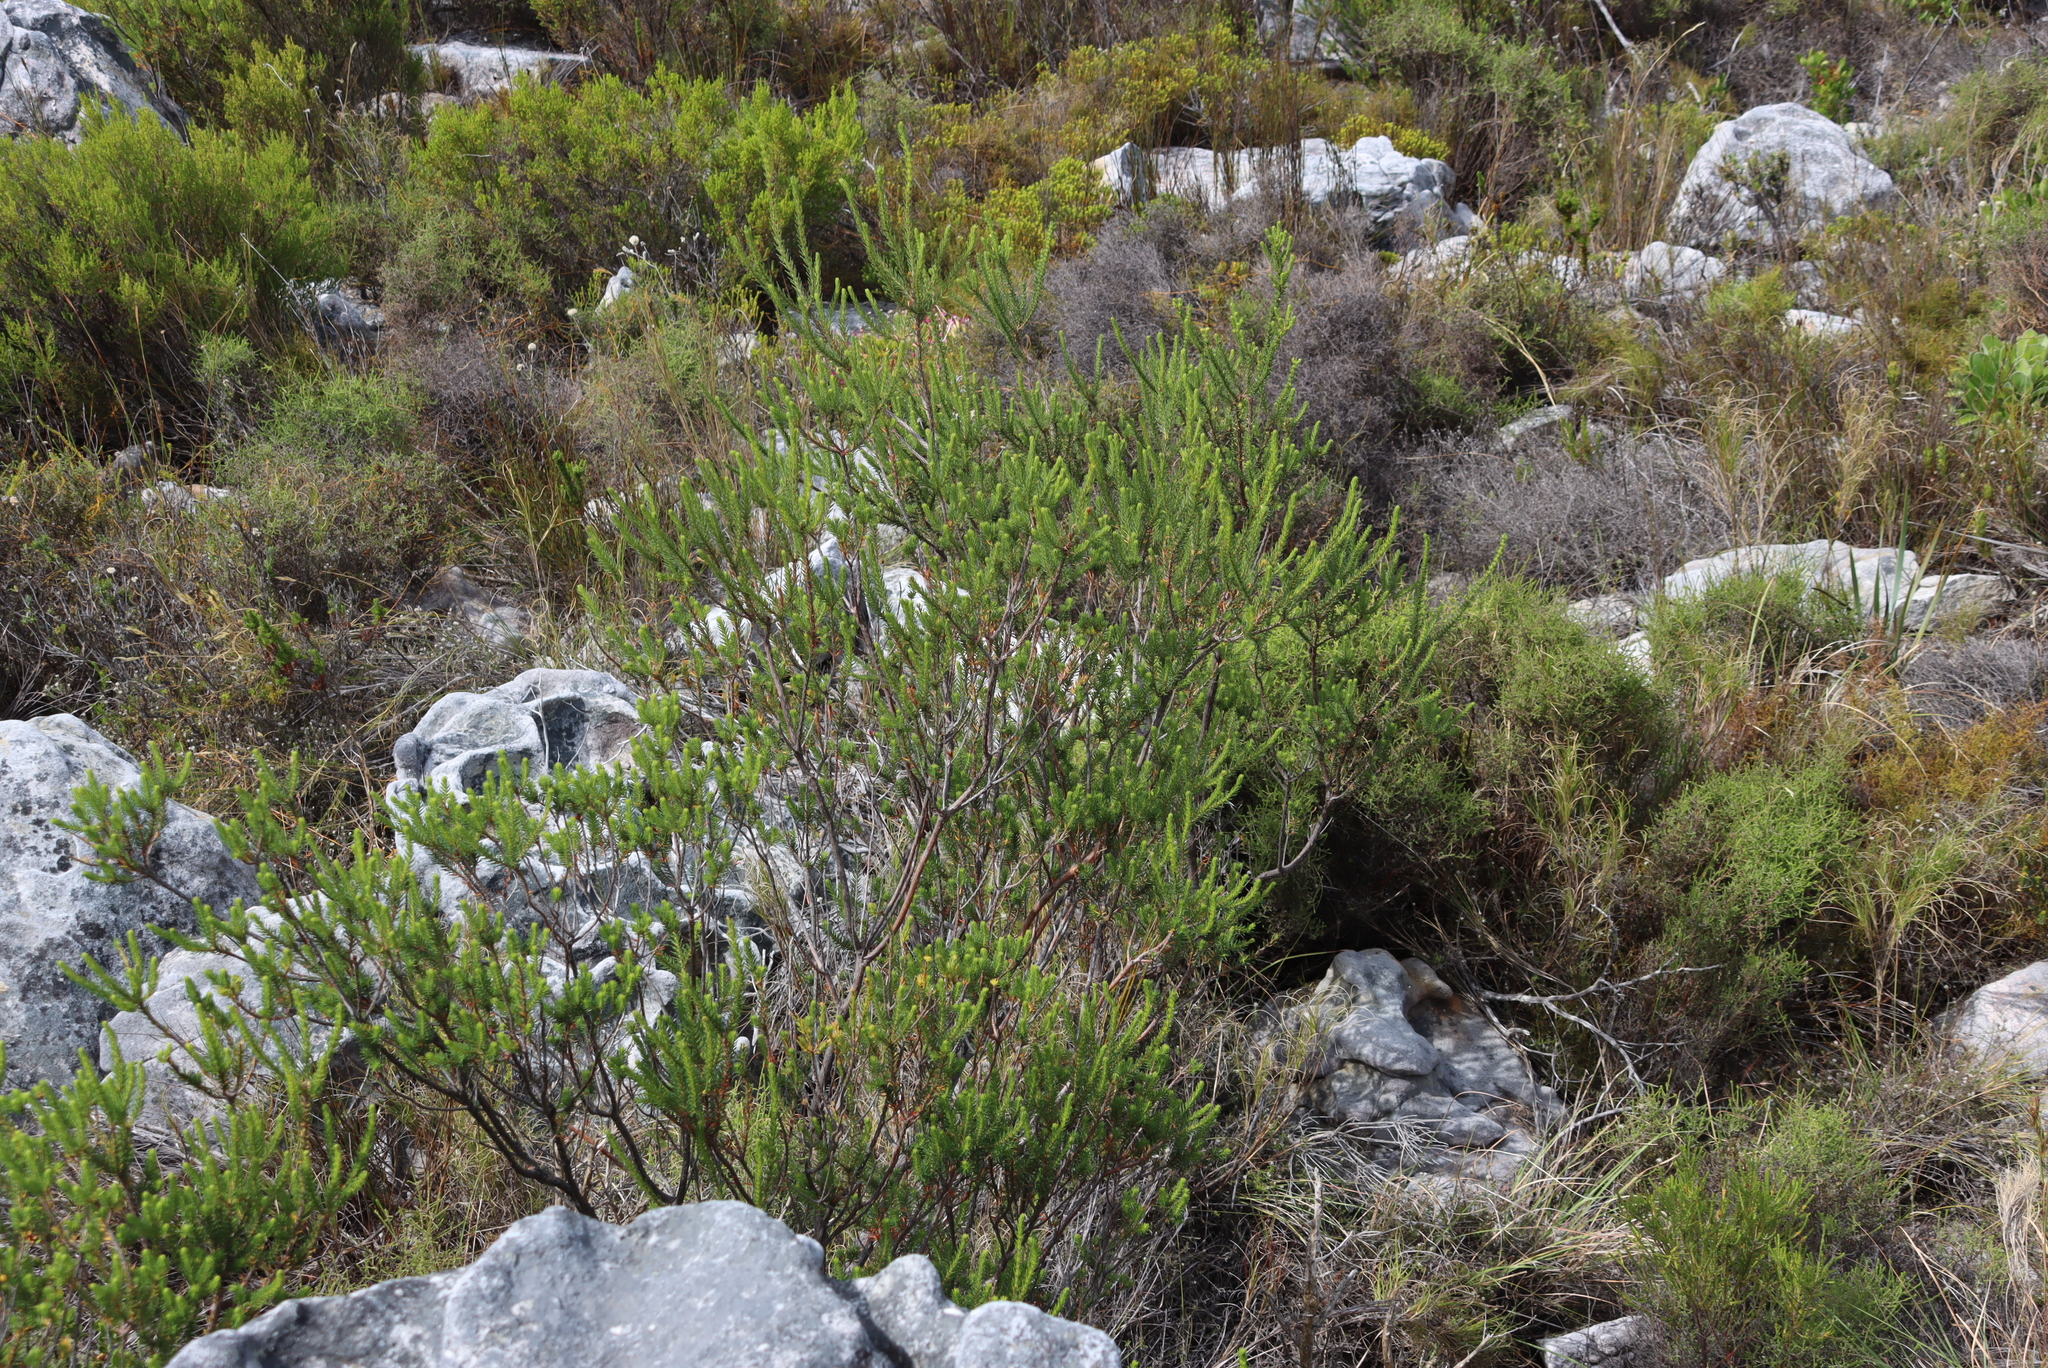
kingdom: Plantae
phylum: Tracheophyta
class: Magnoliopsida
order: Ericales
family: Ericaceae
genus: Erica
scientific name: Erica mammosa
